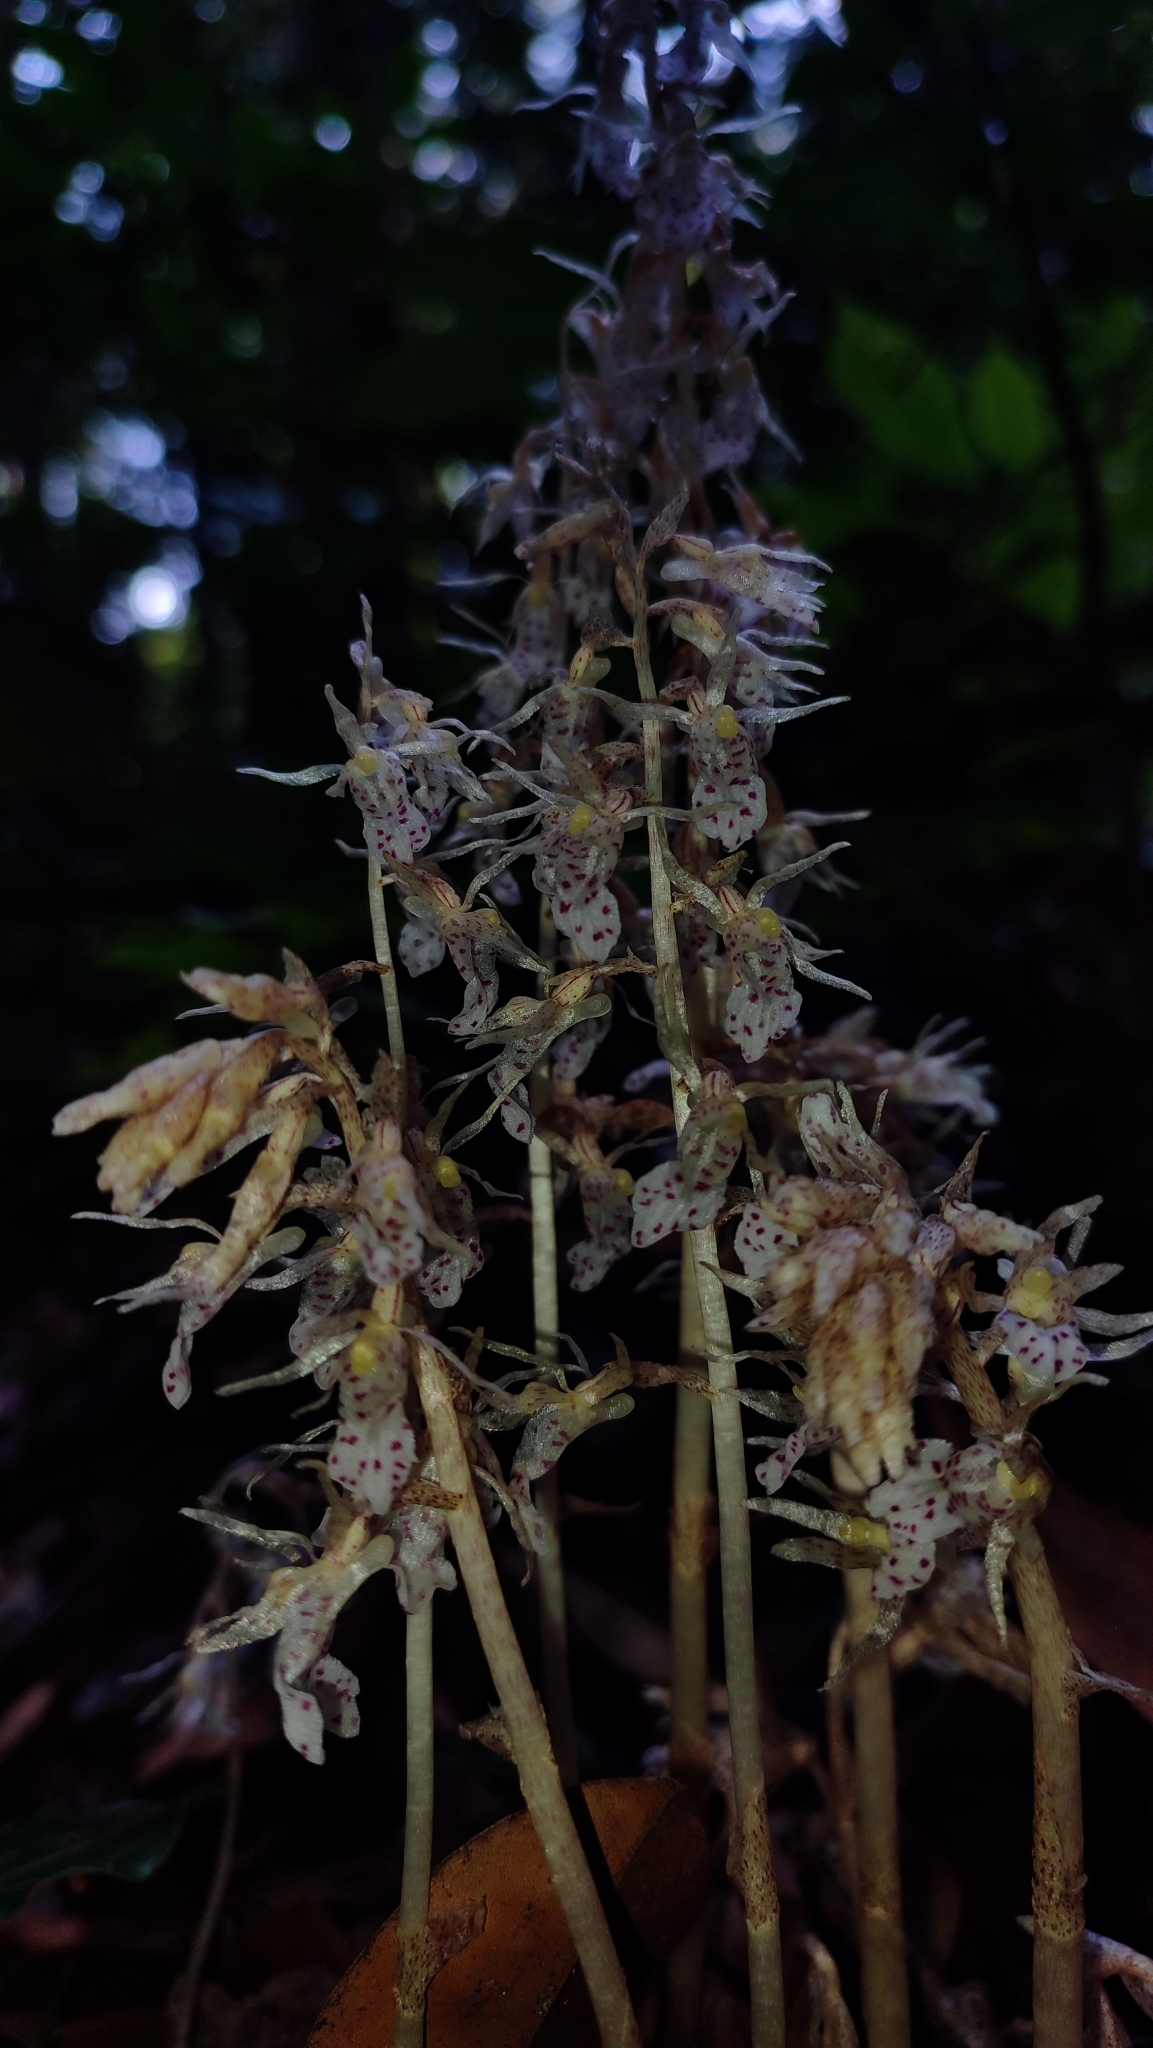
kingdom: Plantae
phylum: Tracheophyta
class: Liliopsida
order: Asparagales
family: Orchidaceae
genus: Epipogium
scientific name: Epipogium roseum
